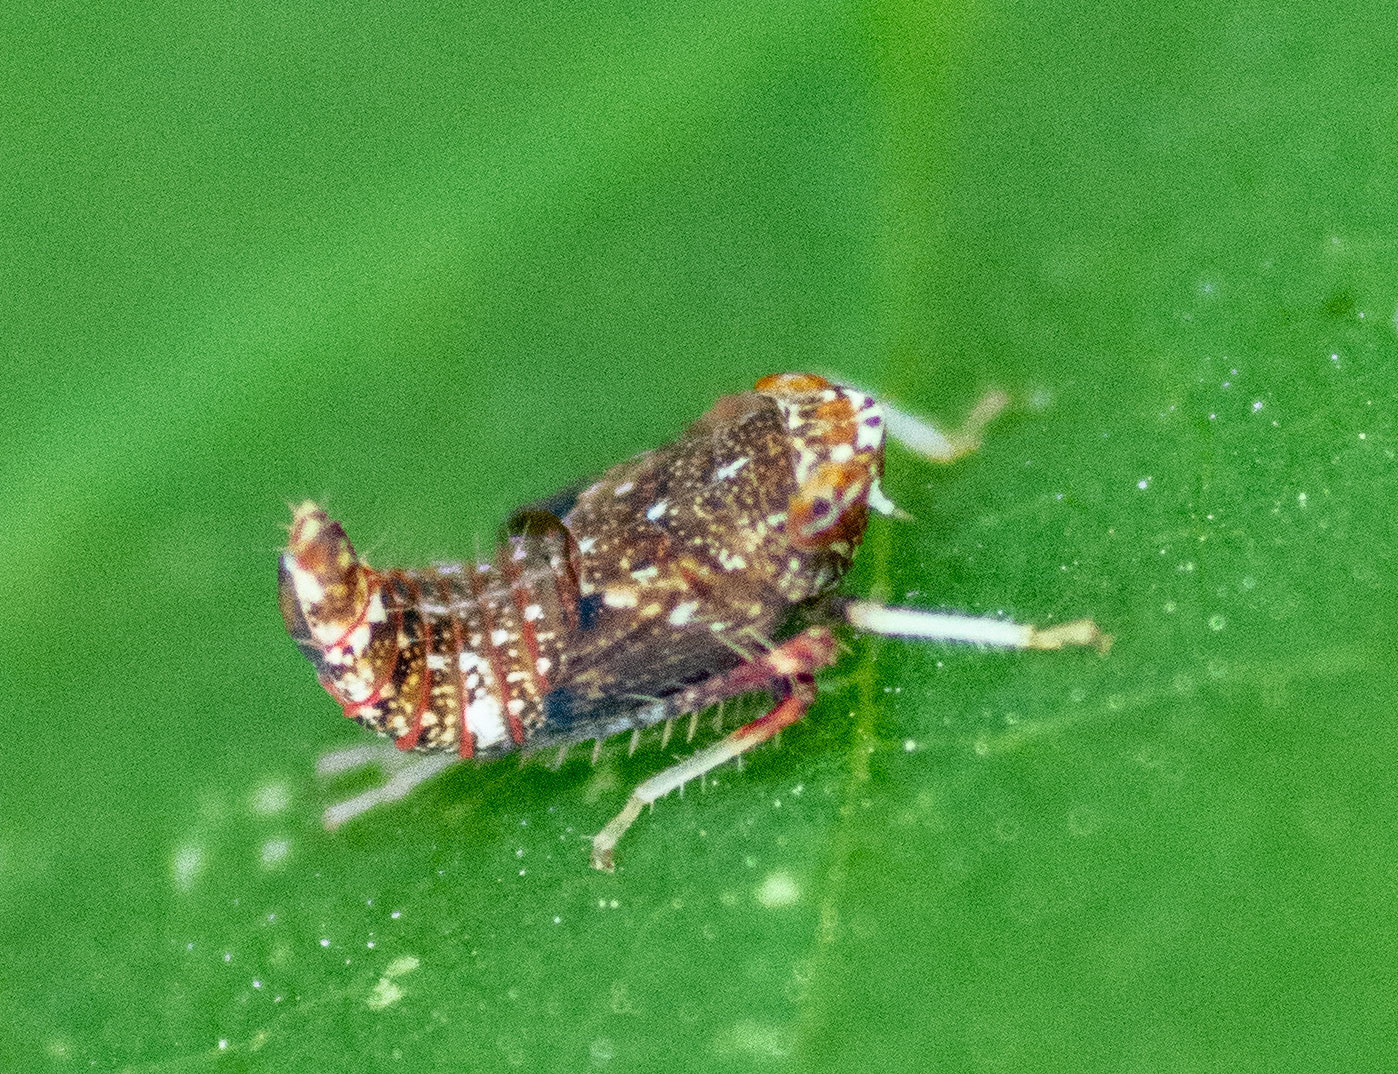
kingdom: Animalia
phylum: Arthropoda
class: Insecta
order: Hemiptera
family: Cicadellidae
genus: Orientus
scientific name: Orientus ishidae
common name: Japanese leafhopper
